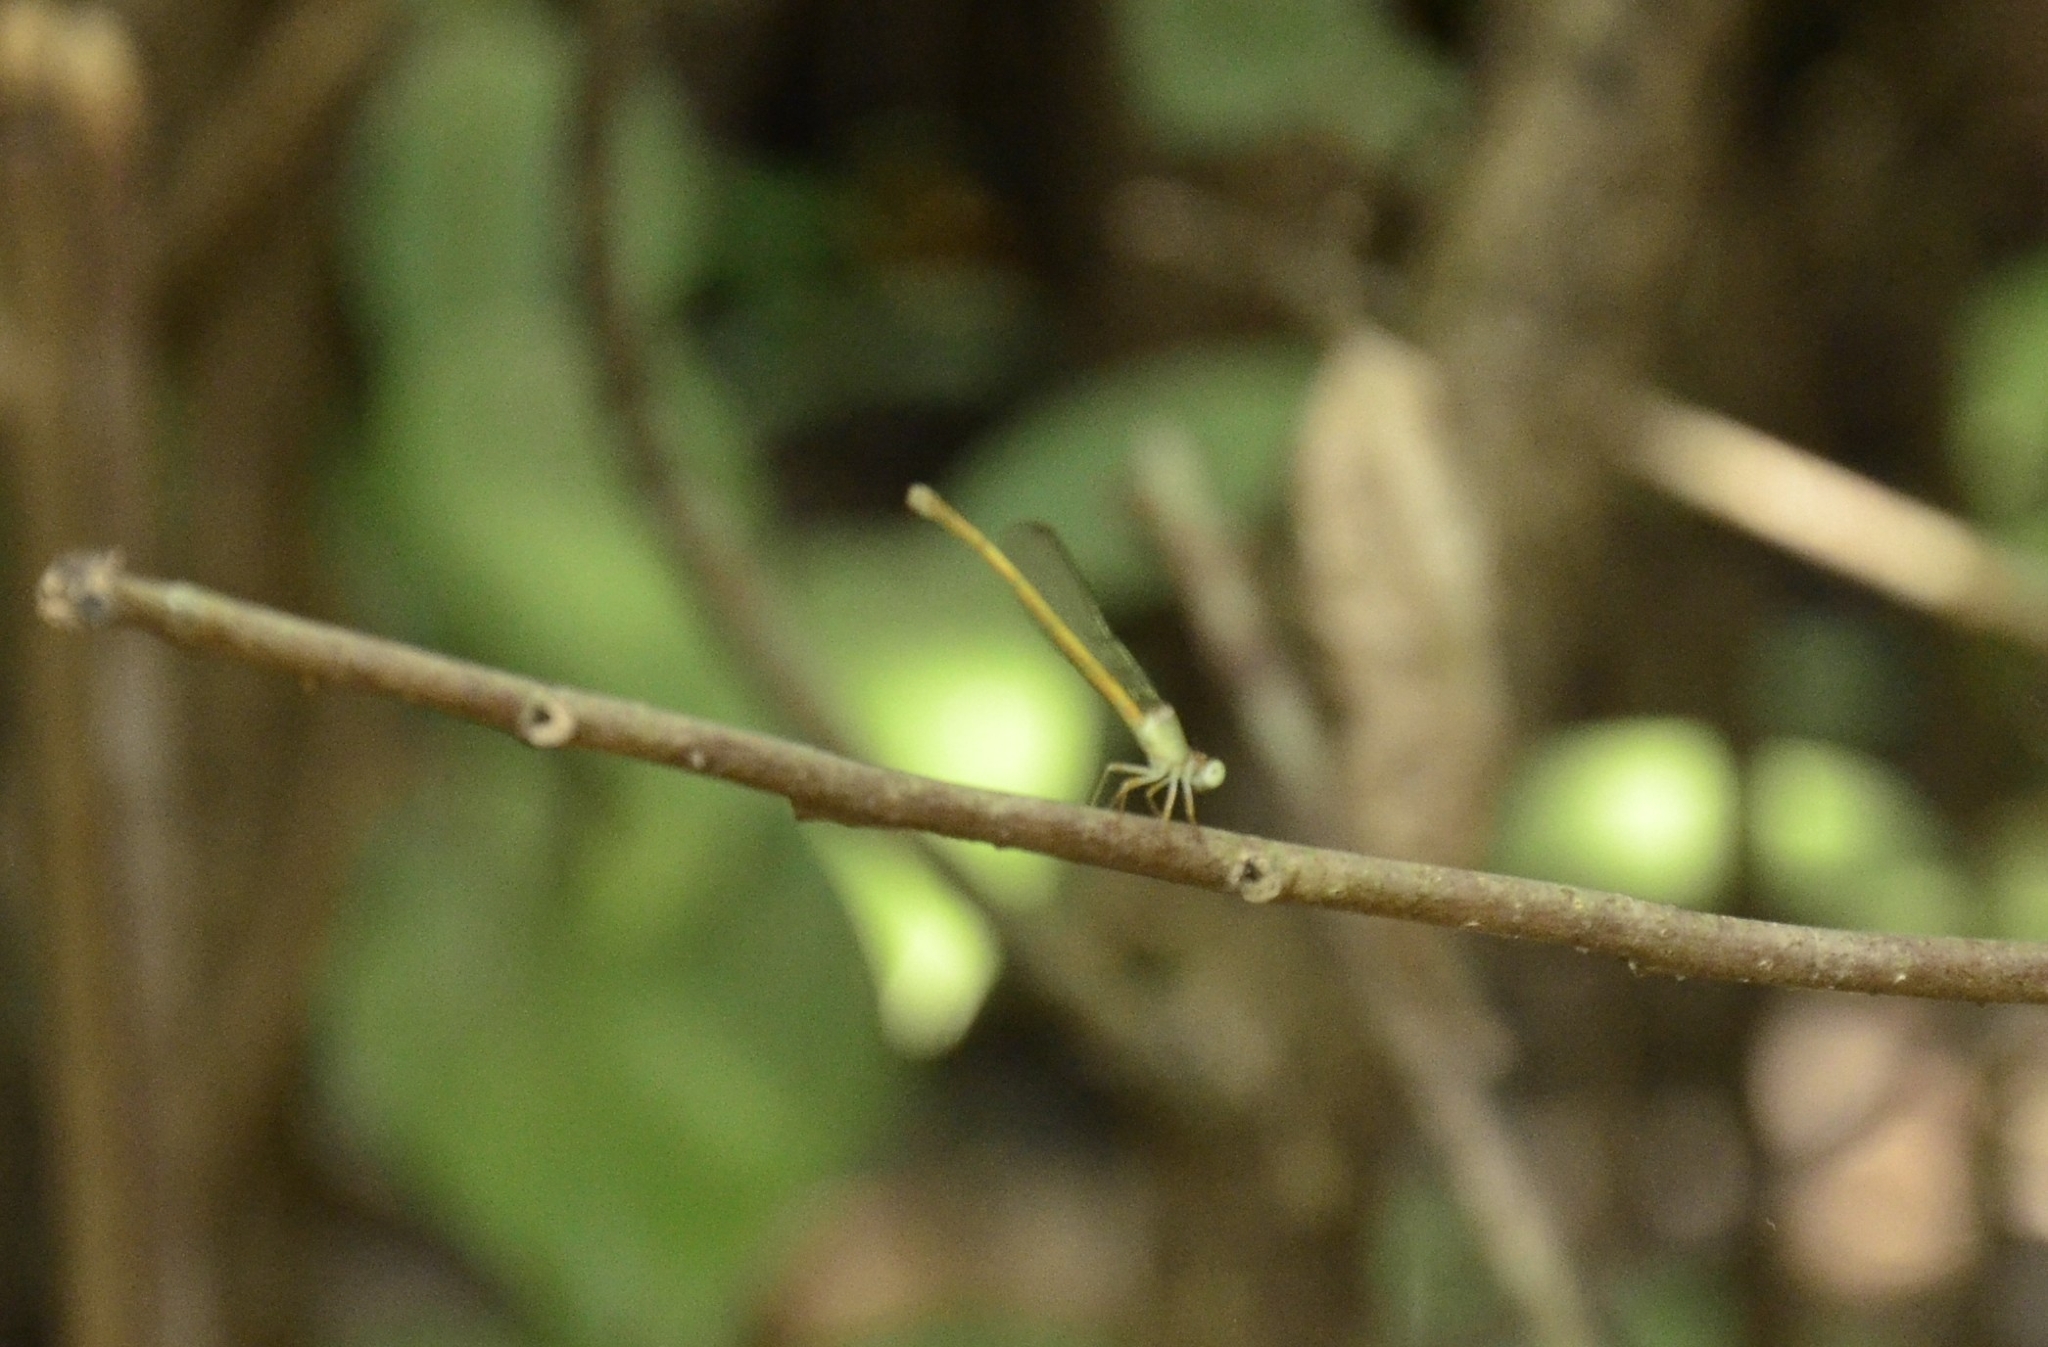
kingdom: Animalia
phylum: Arthropoda
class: Insecta
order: Odonata
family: Coenagrionidae
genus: Ceriagrion
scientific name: Ceriagrion coromandelianum
